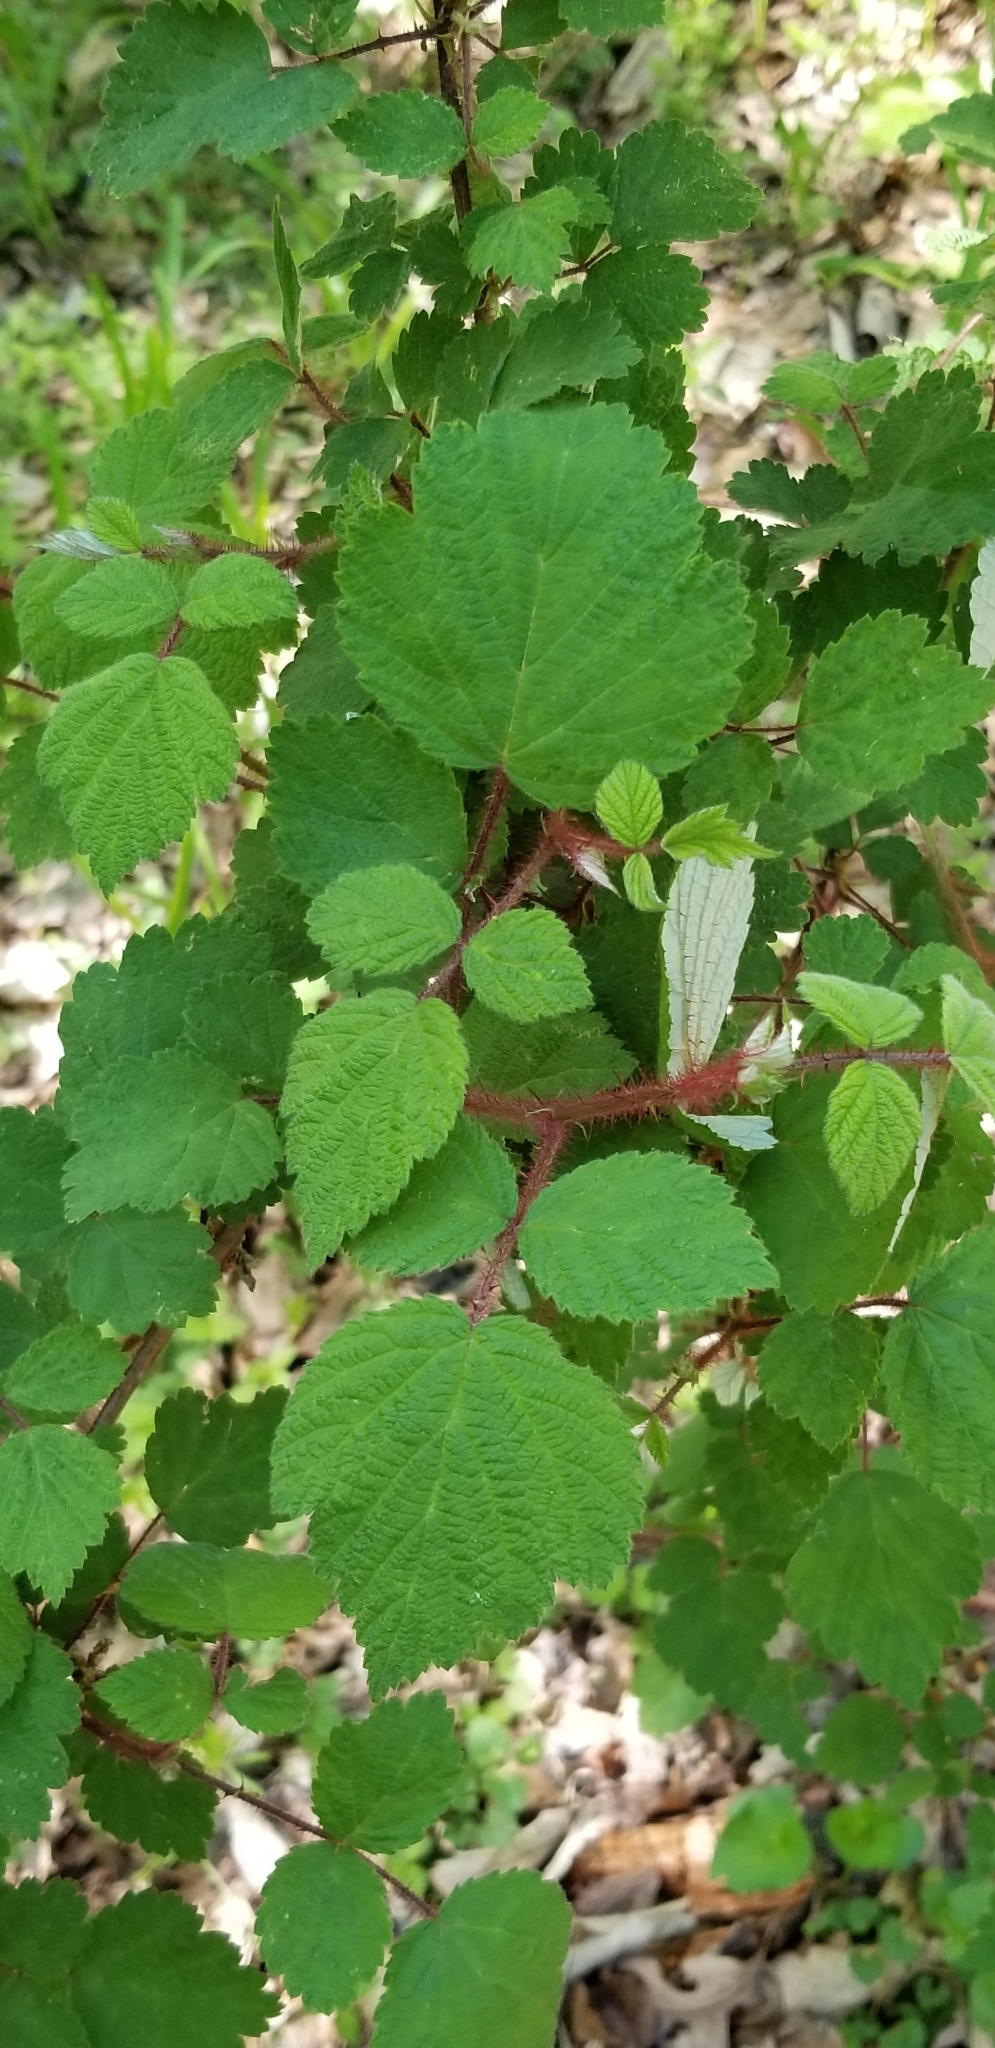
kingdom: Plantae
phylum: Tracheophyta
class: Magnoliopsida
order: Rosales
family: Rosaceae
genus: Rubus
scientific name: Rubus phoenicolasius
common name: Japanese wineberry
